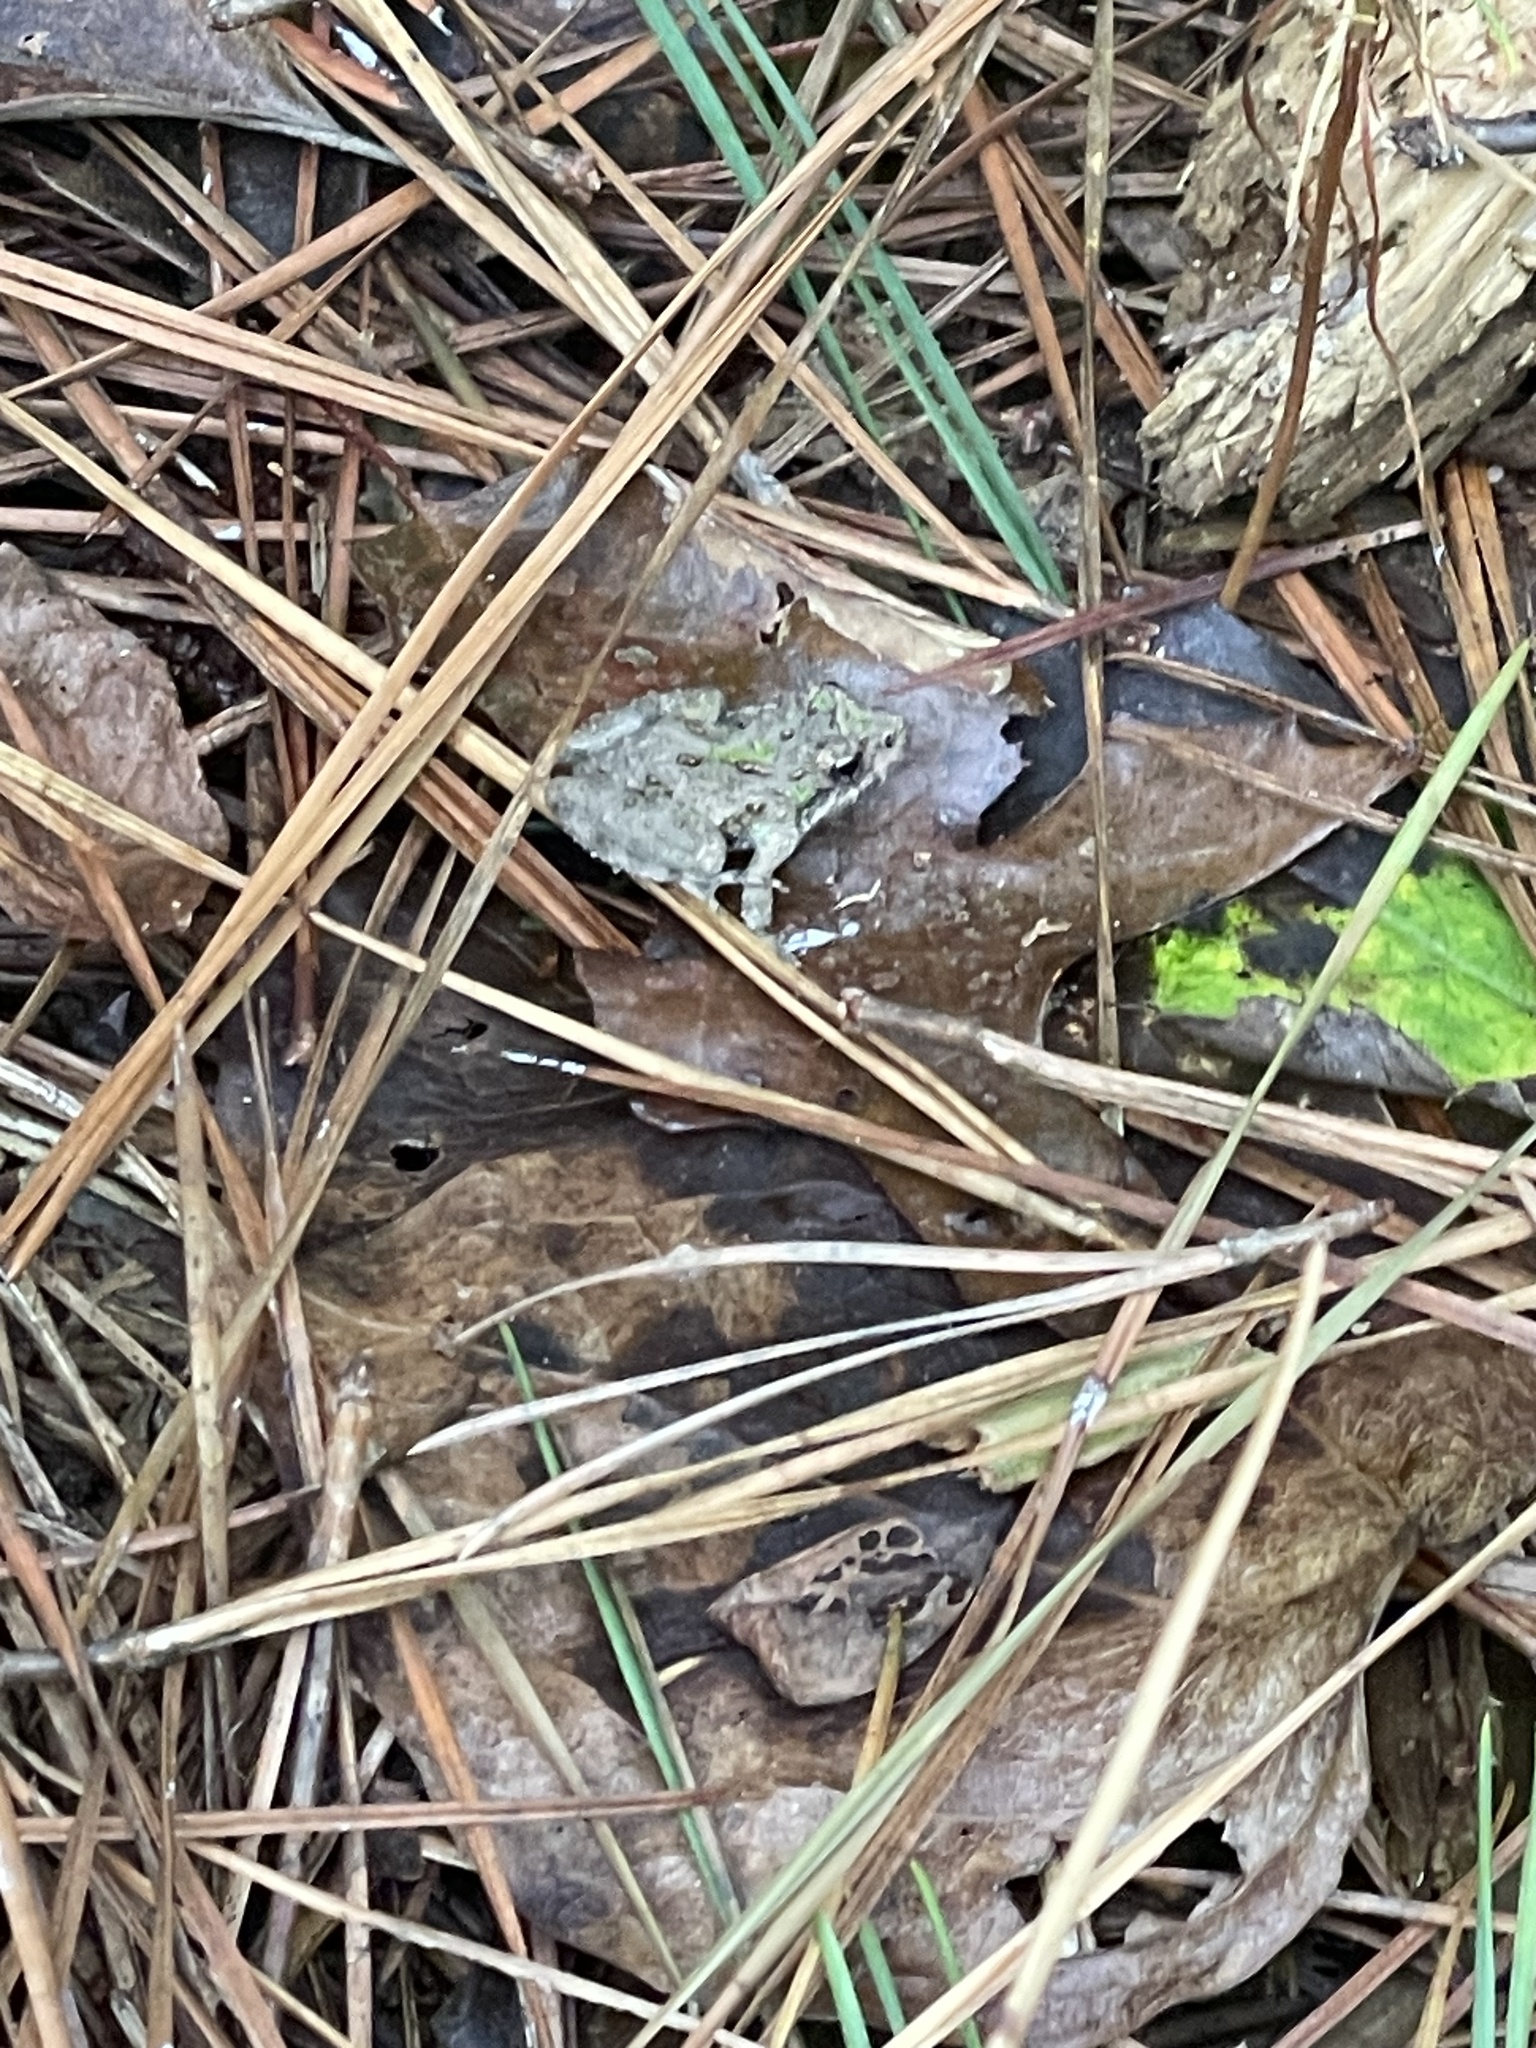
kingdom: Animalia
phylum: Chordata
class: Amphibia
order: Anura
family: Hylidae
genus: Acris
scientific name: Acris crepitans
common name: Northern cricket frog
